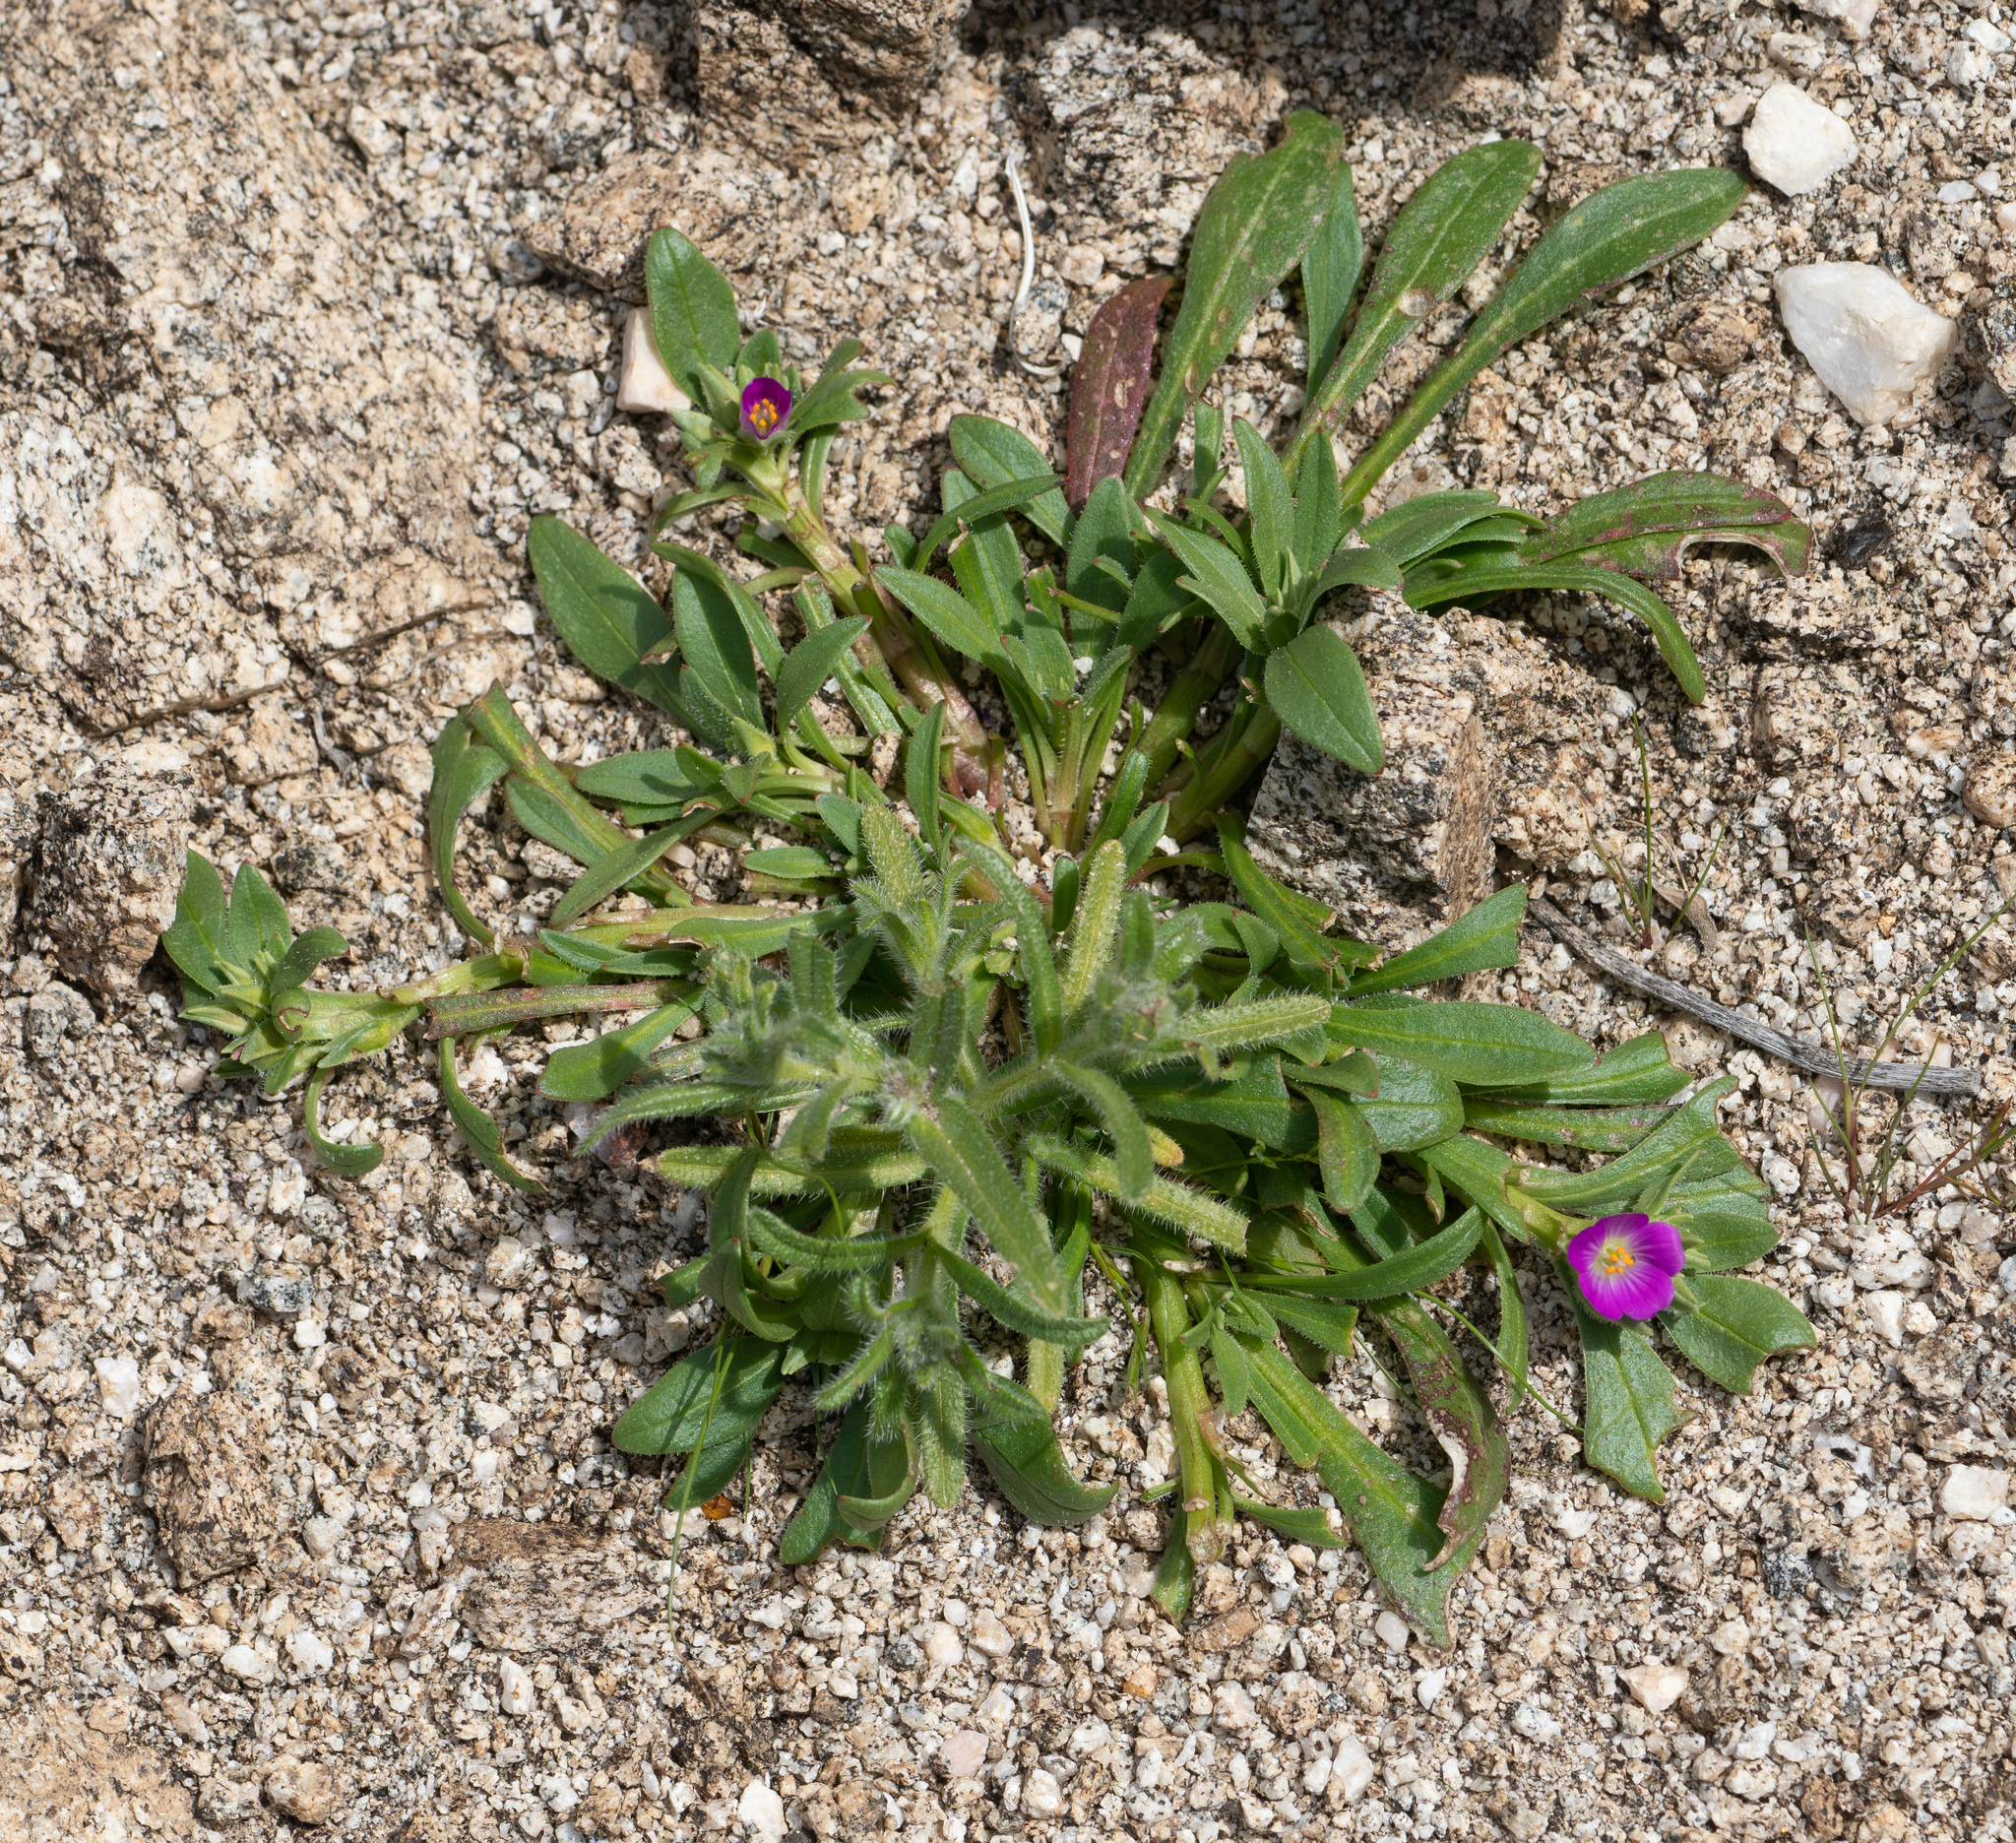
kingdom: Plantae
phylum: Tracheophyta
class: Magnoliopsida
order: Caryophyllales
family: Montiaceae
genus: Calandrinia
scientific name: Calandrinia menziesii
